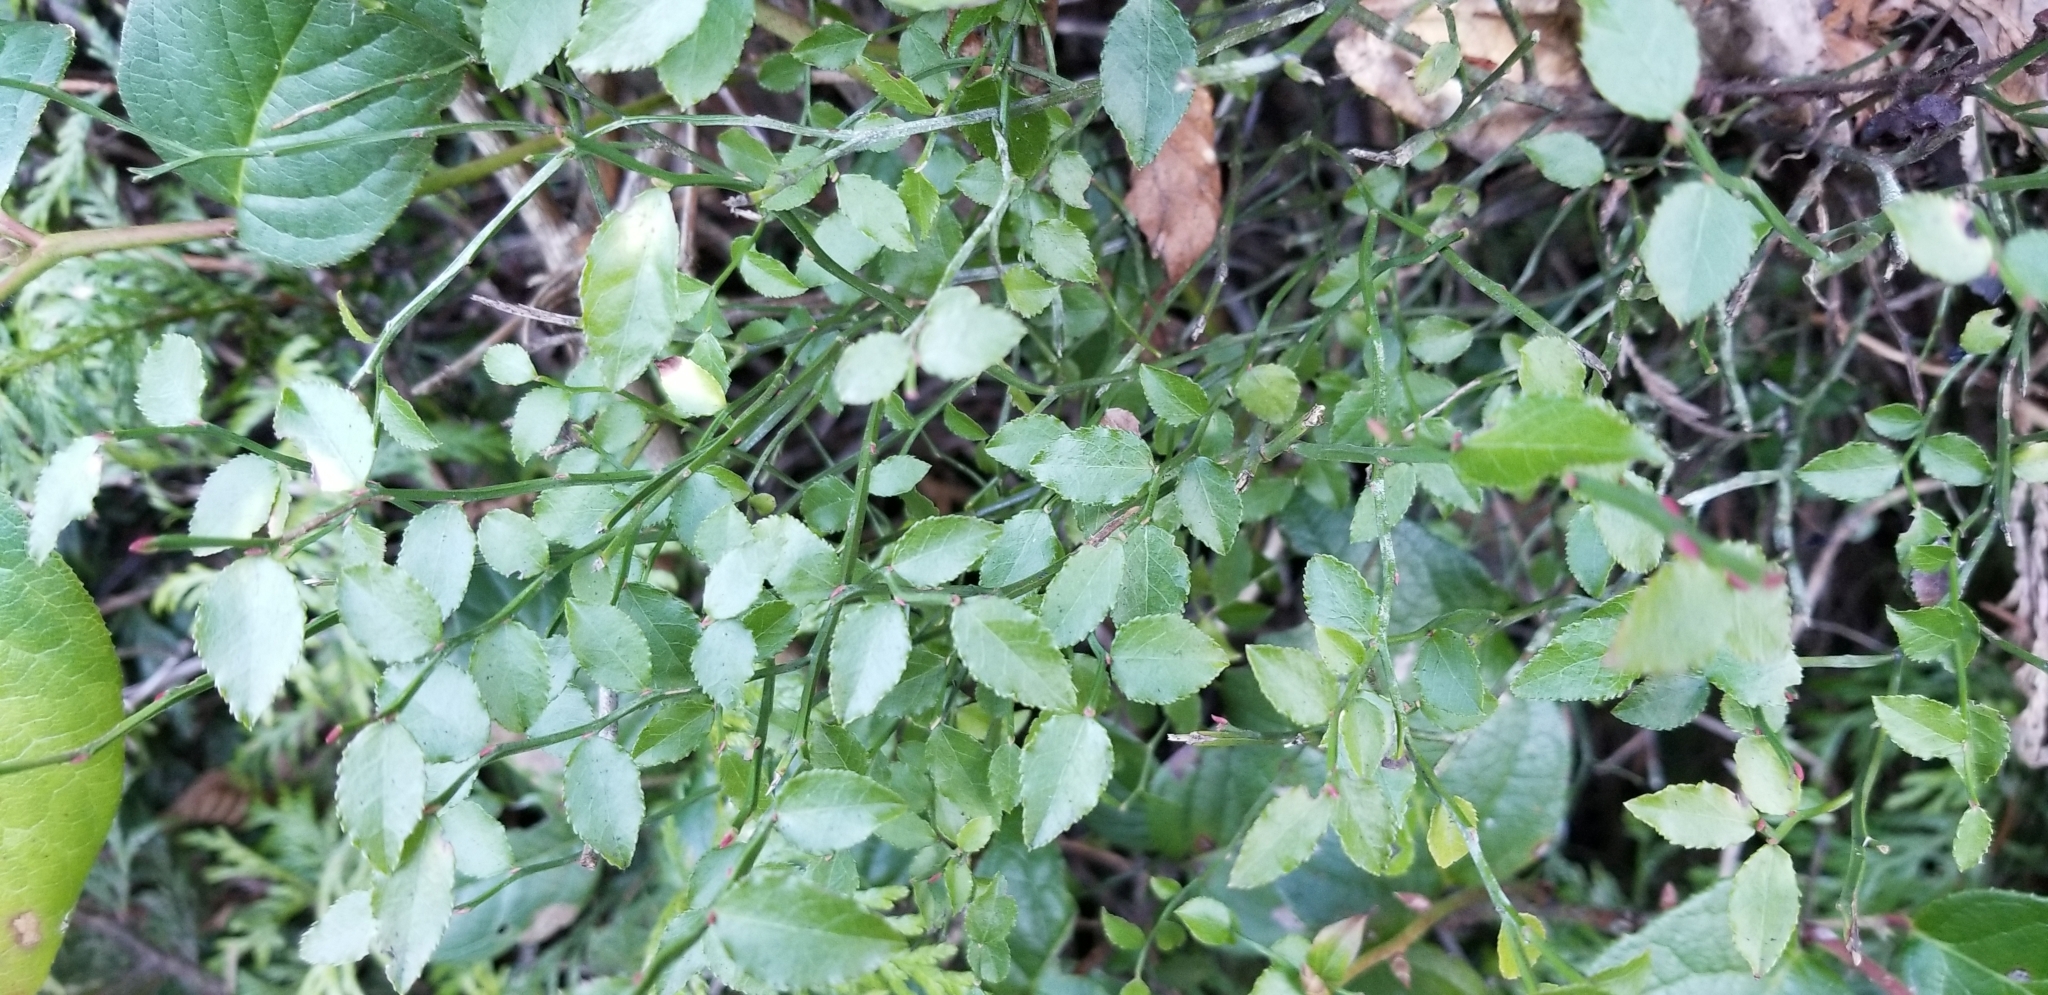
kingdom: Plantae
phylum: Tracheophyta
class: Magnoliopsida
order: Ericales
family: Ericaceae
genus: Vaccinium
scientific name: Vaccinium parvifolium
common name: Red-huckleberry
